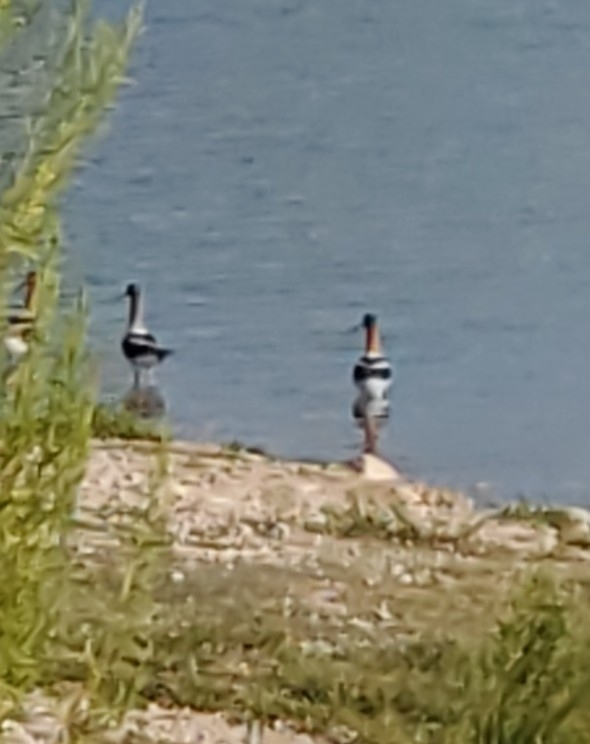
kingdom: Animalia
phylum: Chordata
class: Aves
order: Charadriiformes
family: Recurvirostridae
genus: Recurvirostra
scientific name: Recurvirostra americana
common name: American avocet
